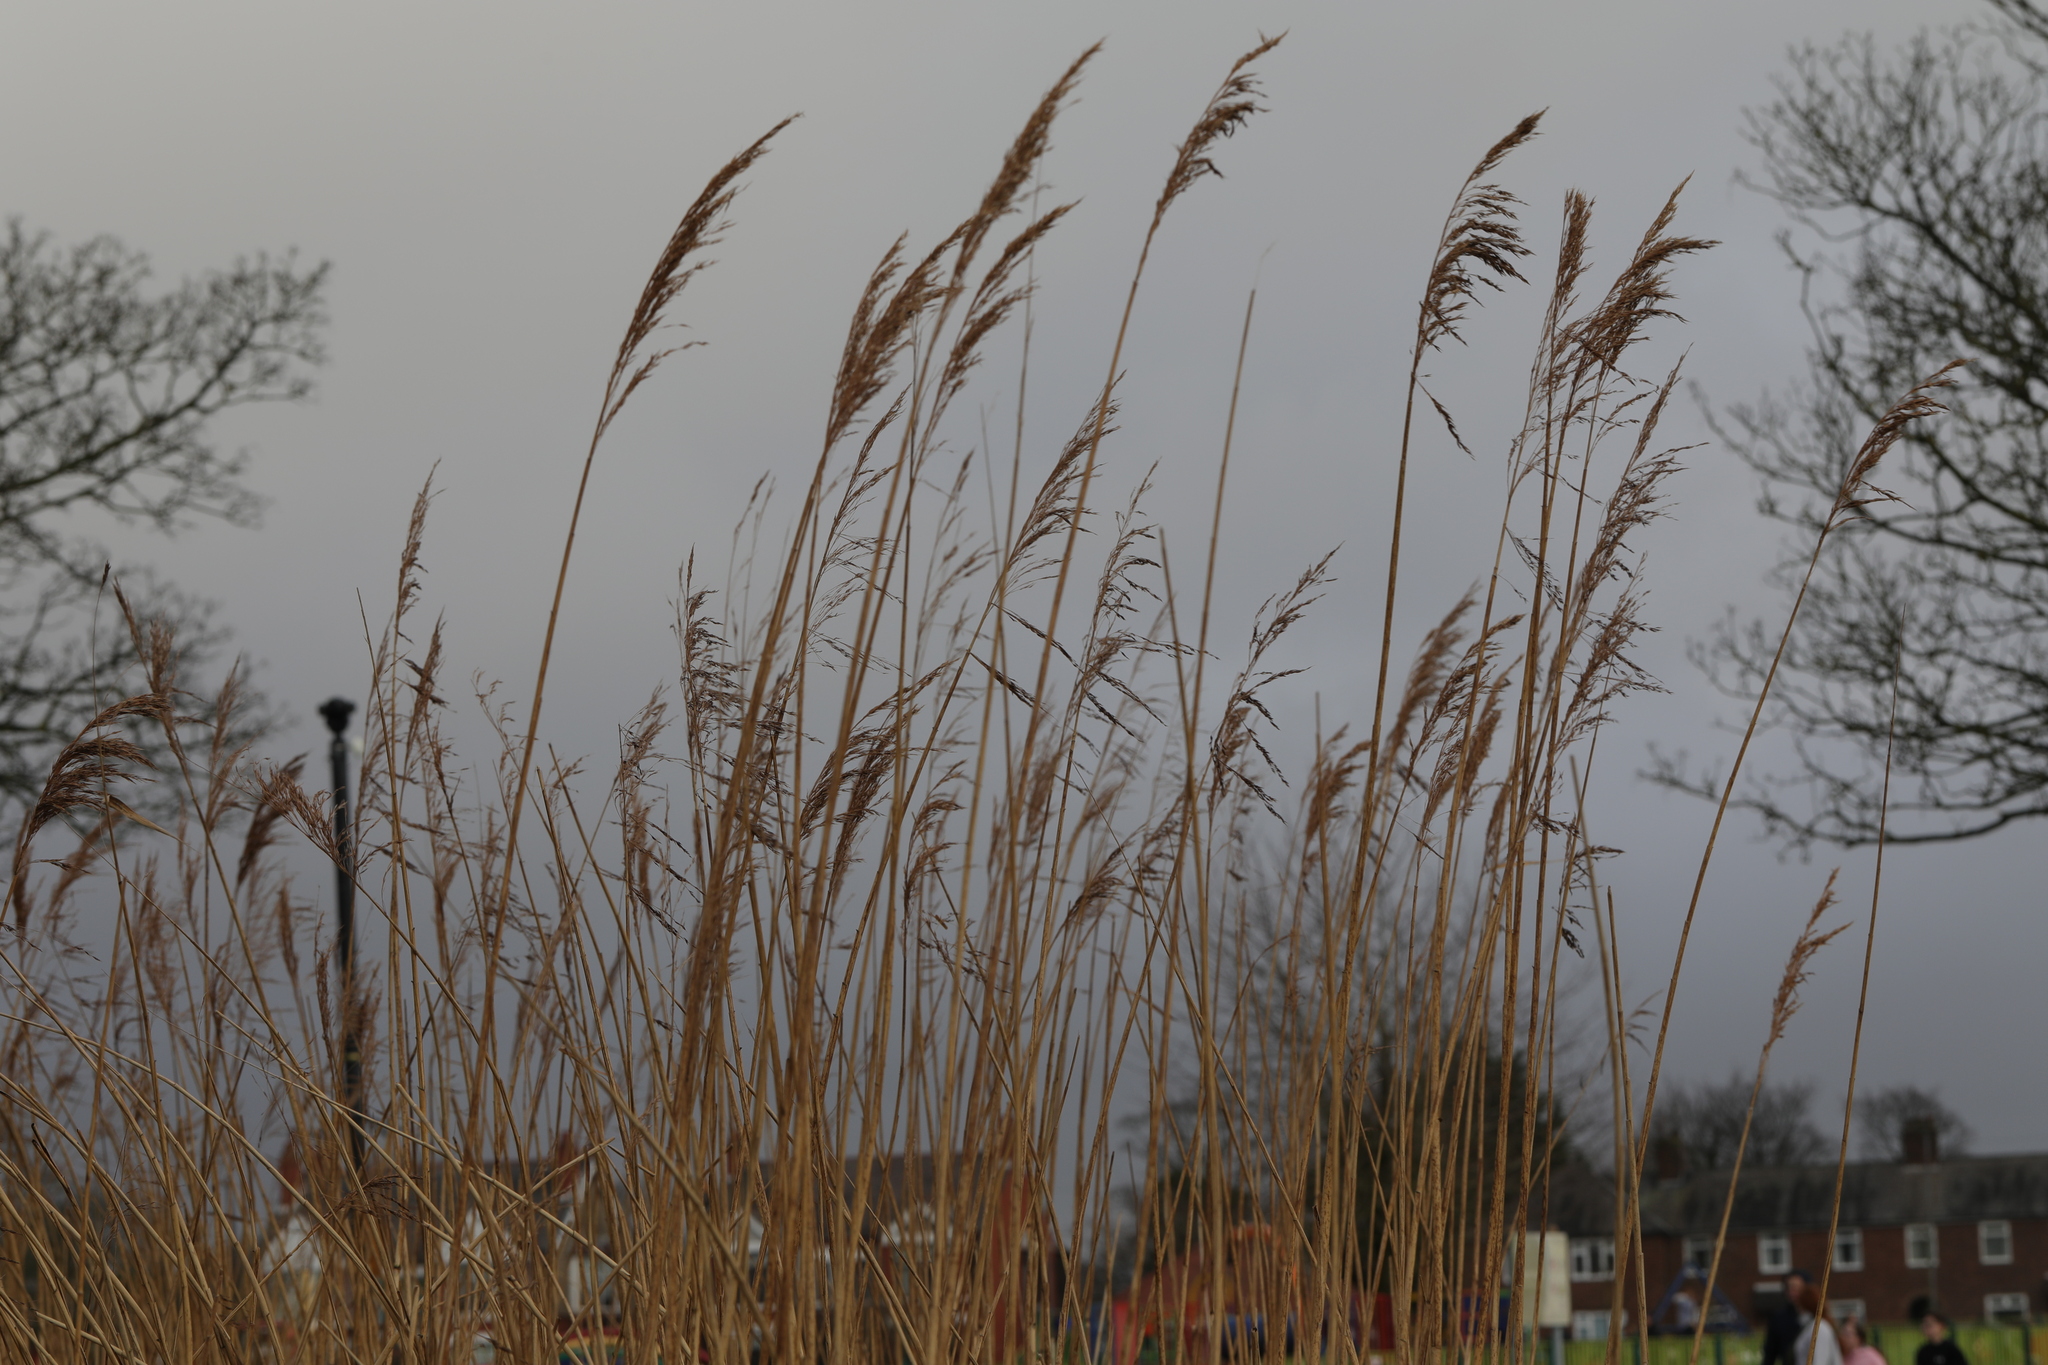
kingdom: Plantae
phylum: Tracheophyta
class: Liliopsida
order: Poales
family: Poaceae
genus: Phragmites
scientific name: Phragmites australis
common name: Common reed
